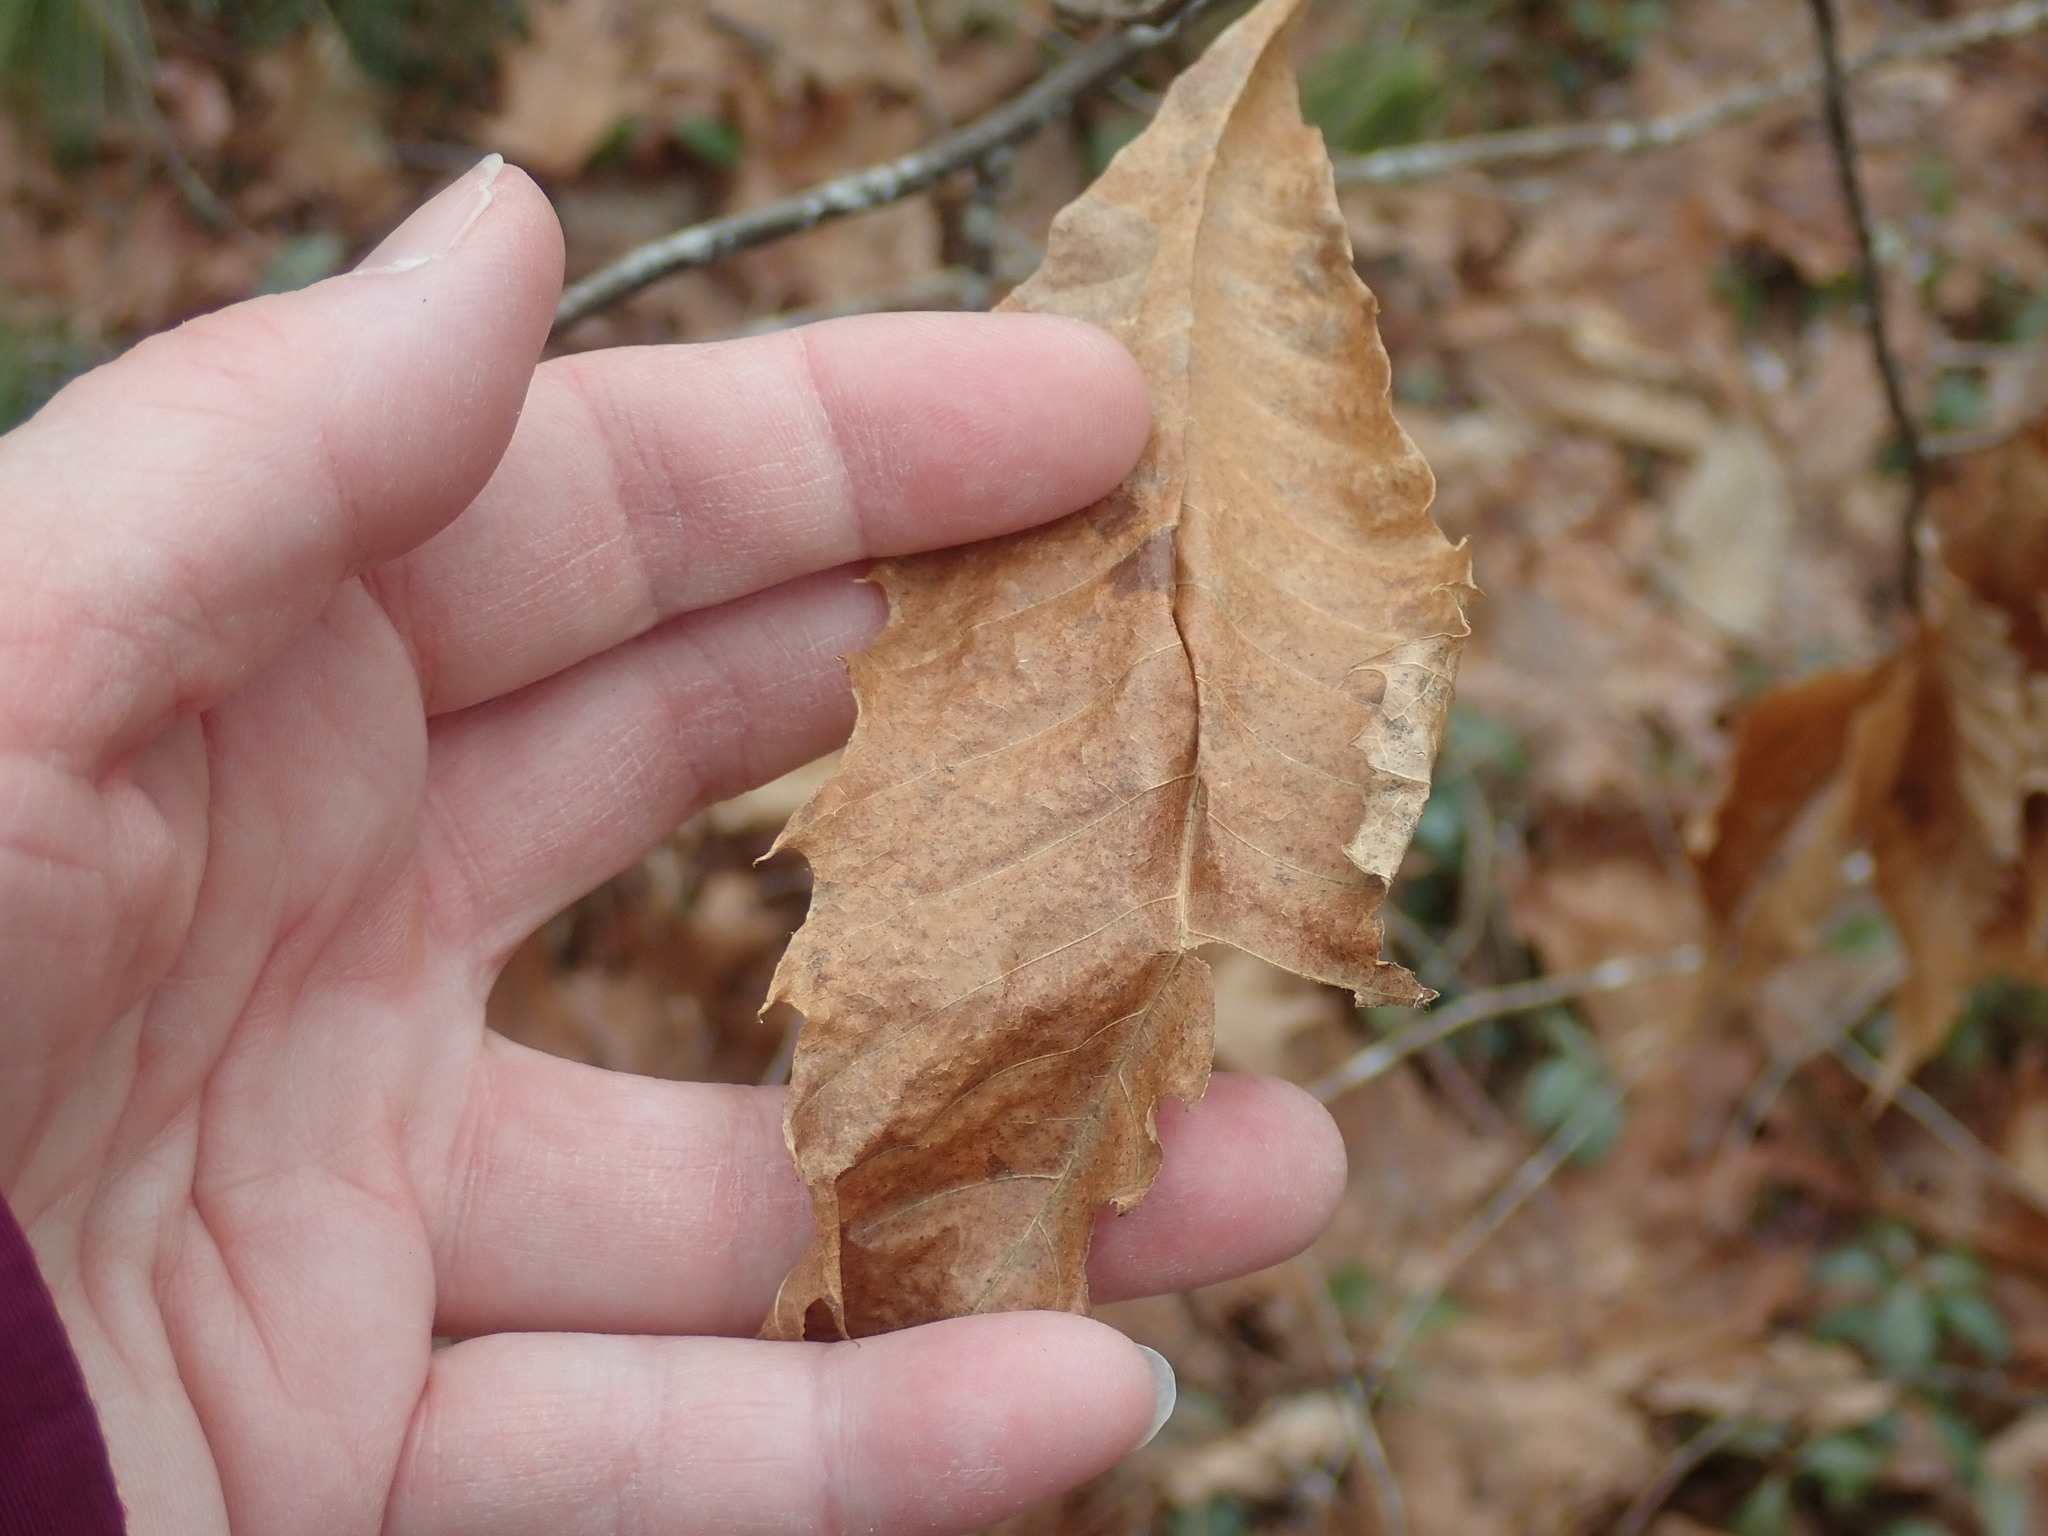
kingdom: Plantae
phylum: Tracheophyta
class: Magnoliopsida
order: Fagales
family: Fagaceae
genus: Castanea
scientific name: Castanea dentata
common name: American chestnut
